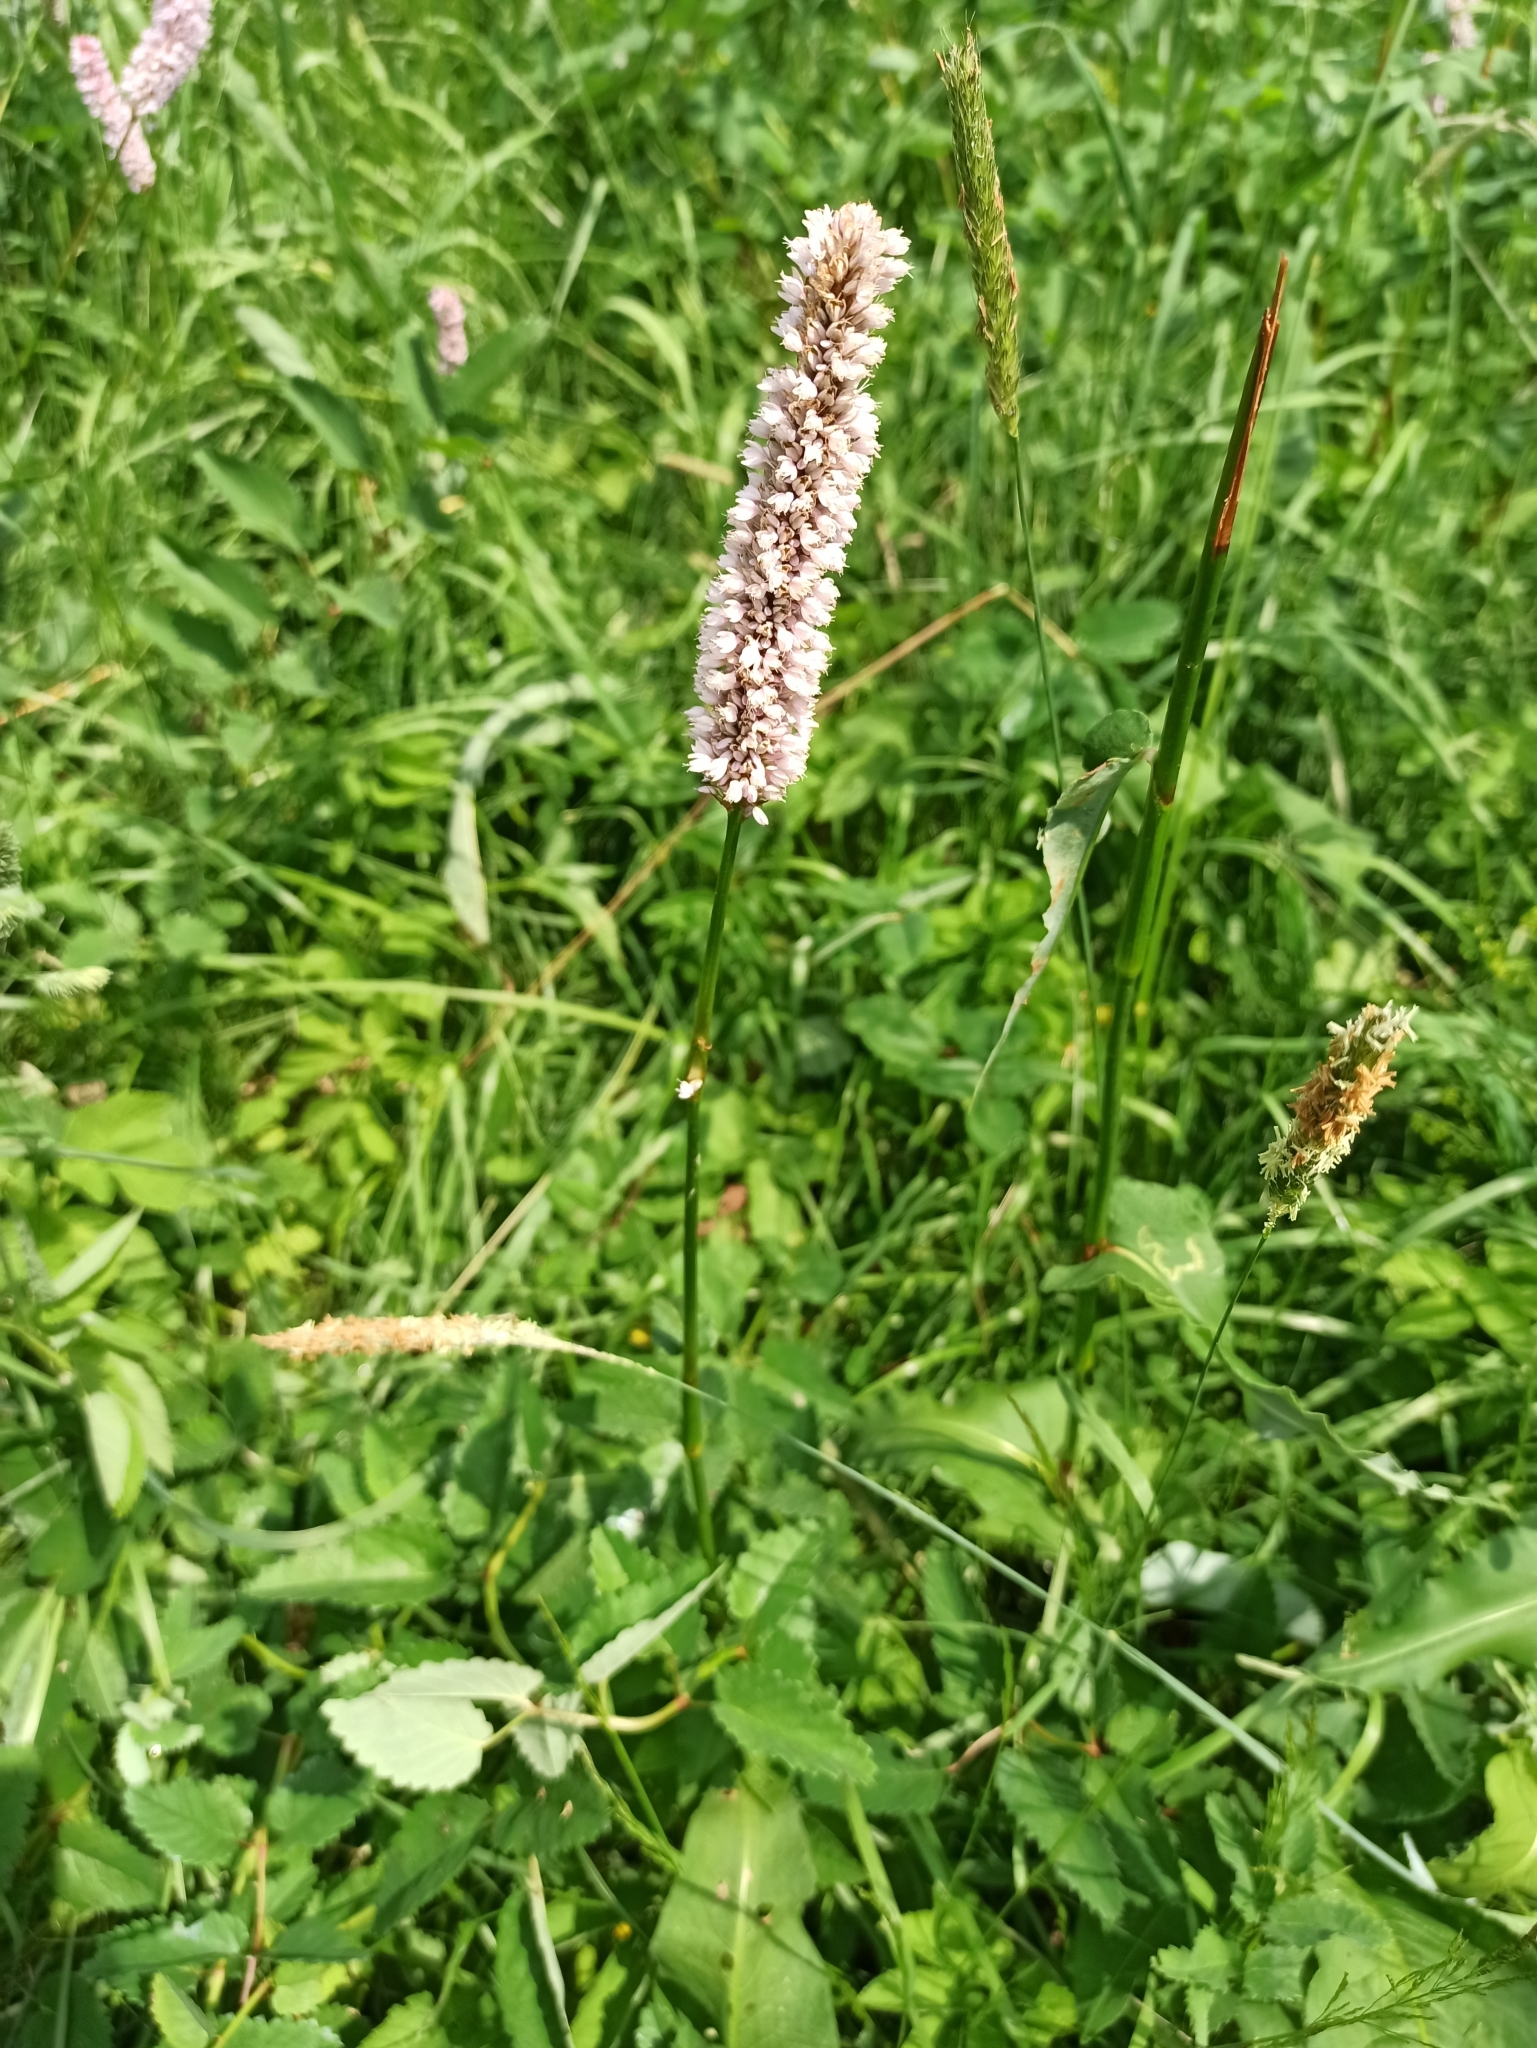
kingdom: Plantae
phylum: Tracheophyta
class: Magnoliopsida
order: Caryophyllales
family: Polygonaceae
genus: Bistorta
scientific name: Bistorta officinalis
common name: Common bistort
